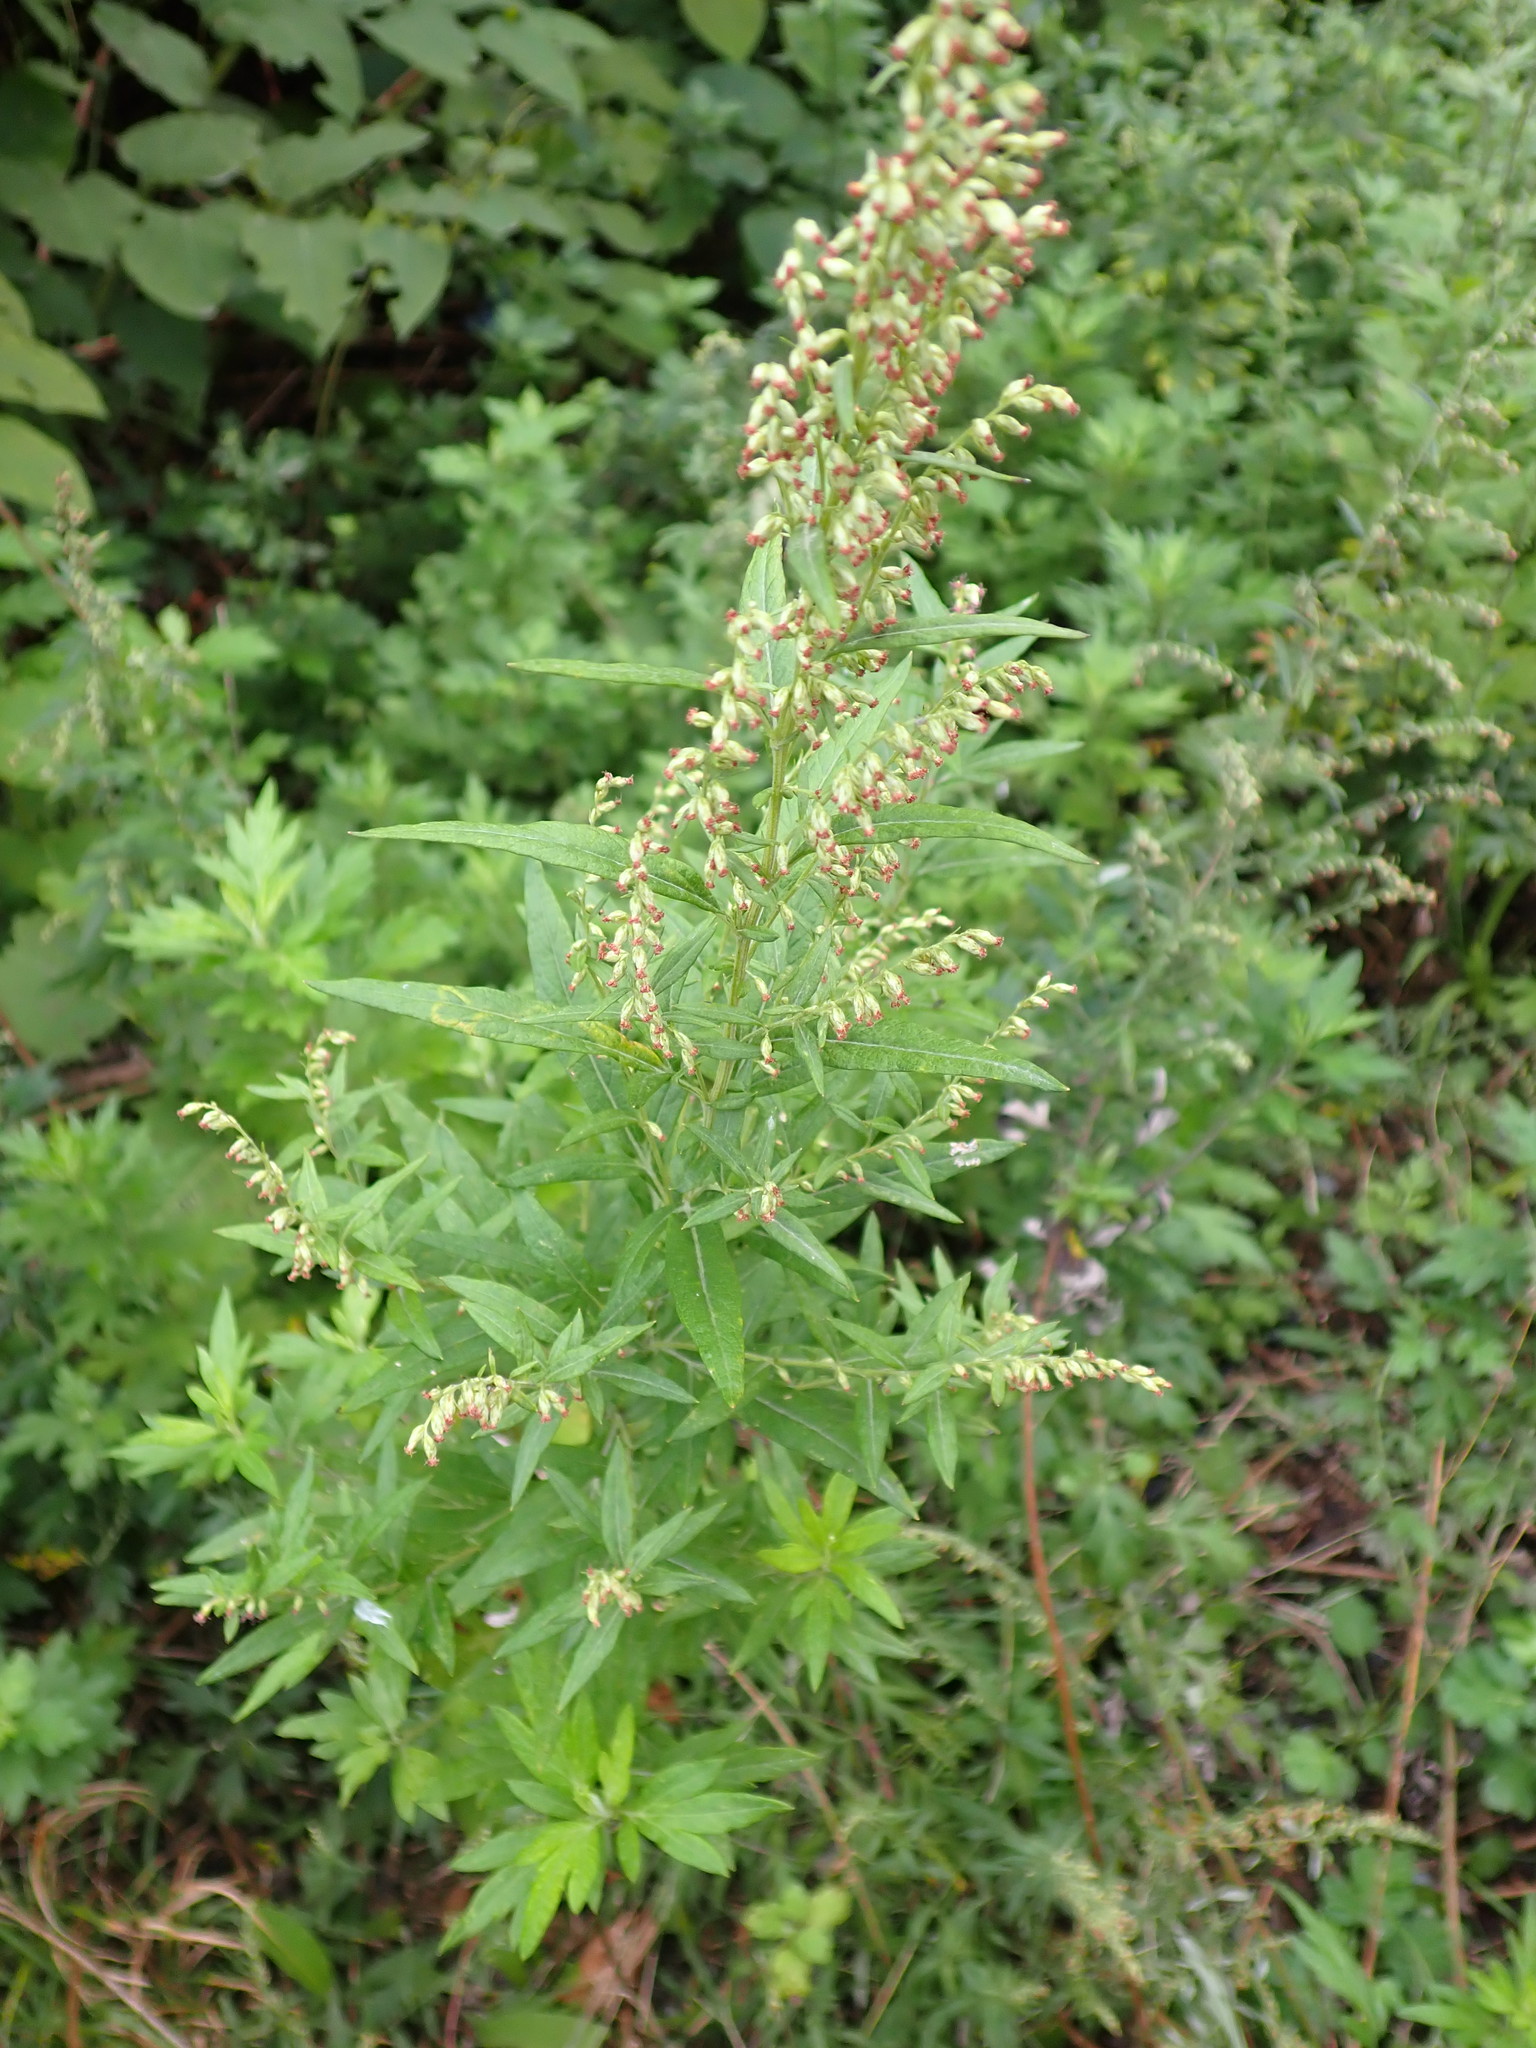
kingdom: Plantae
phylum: Tracheophyta
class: Magnoliopsida
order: Asterales
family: Asteraceae
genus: Artemisia
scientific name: Artemisia vulgaris
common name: Mugwort
